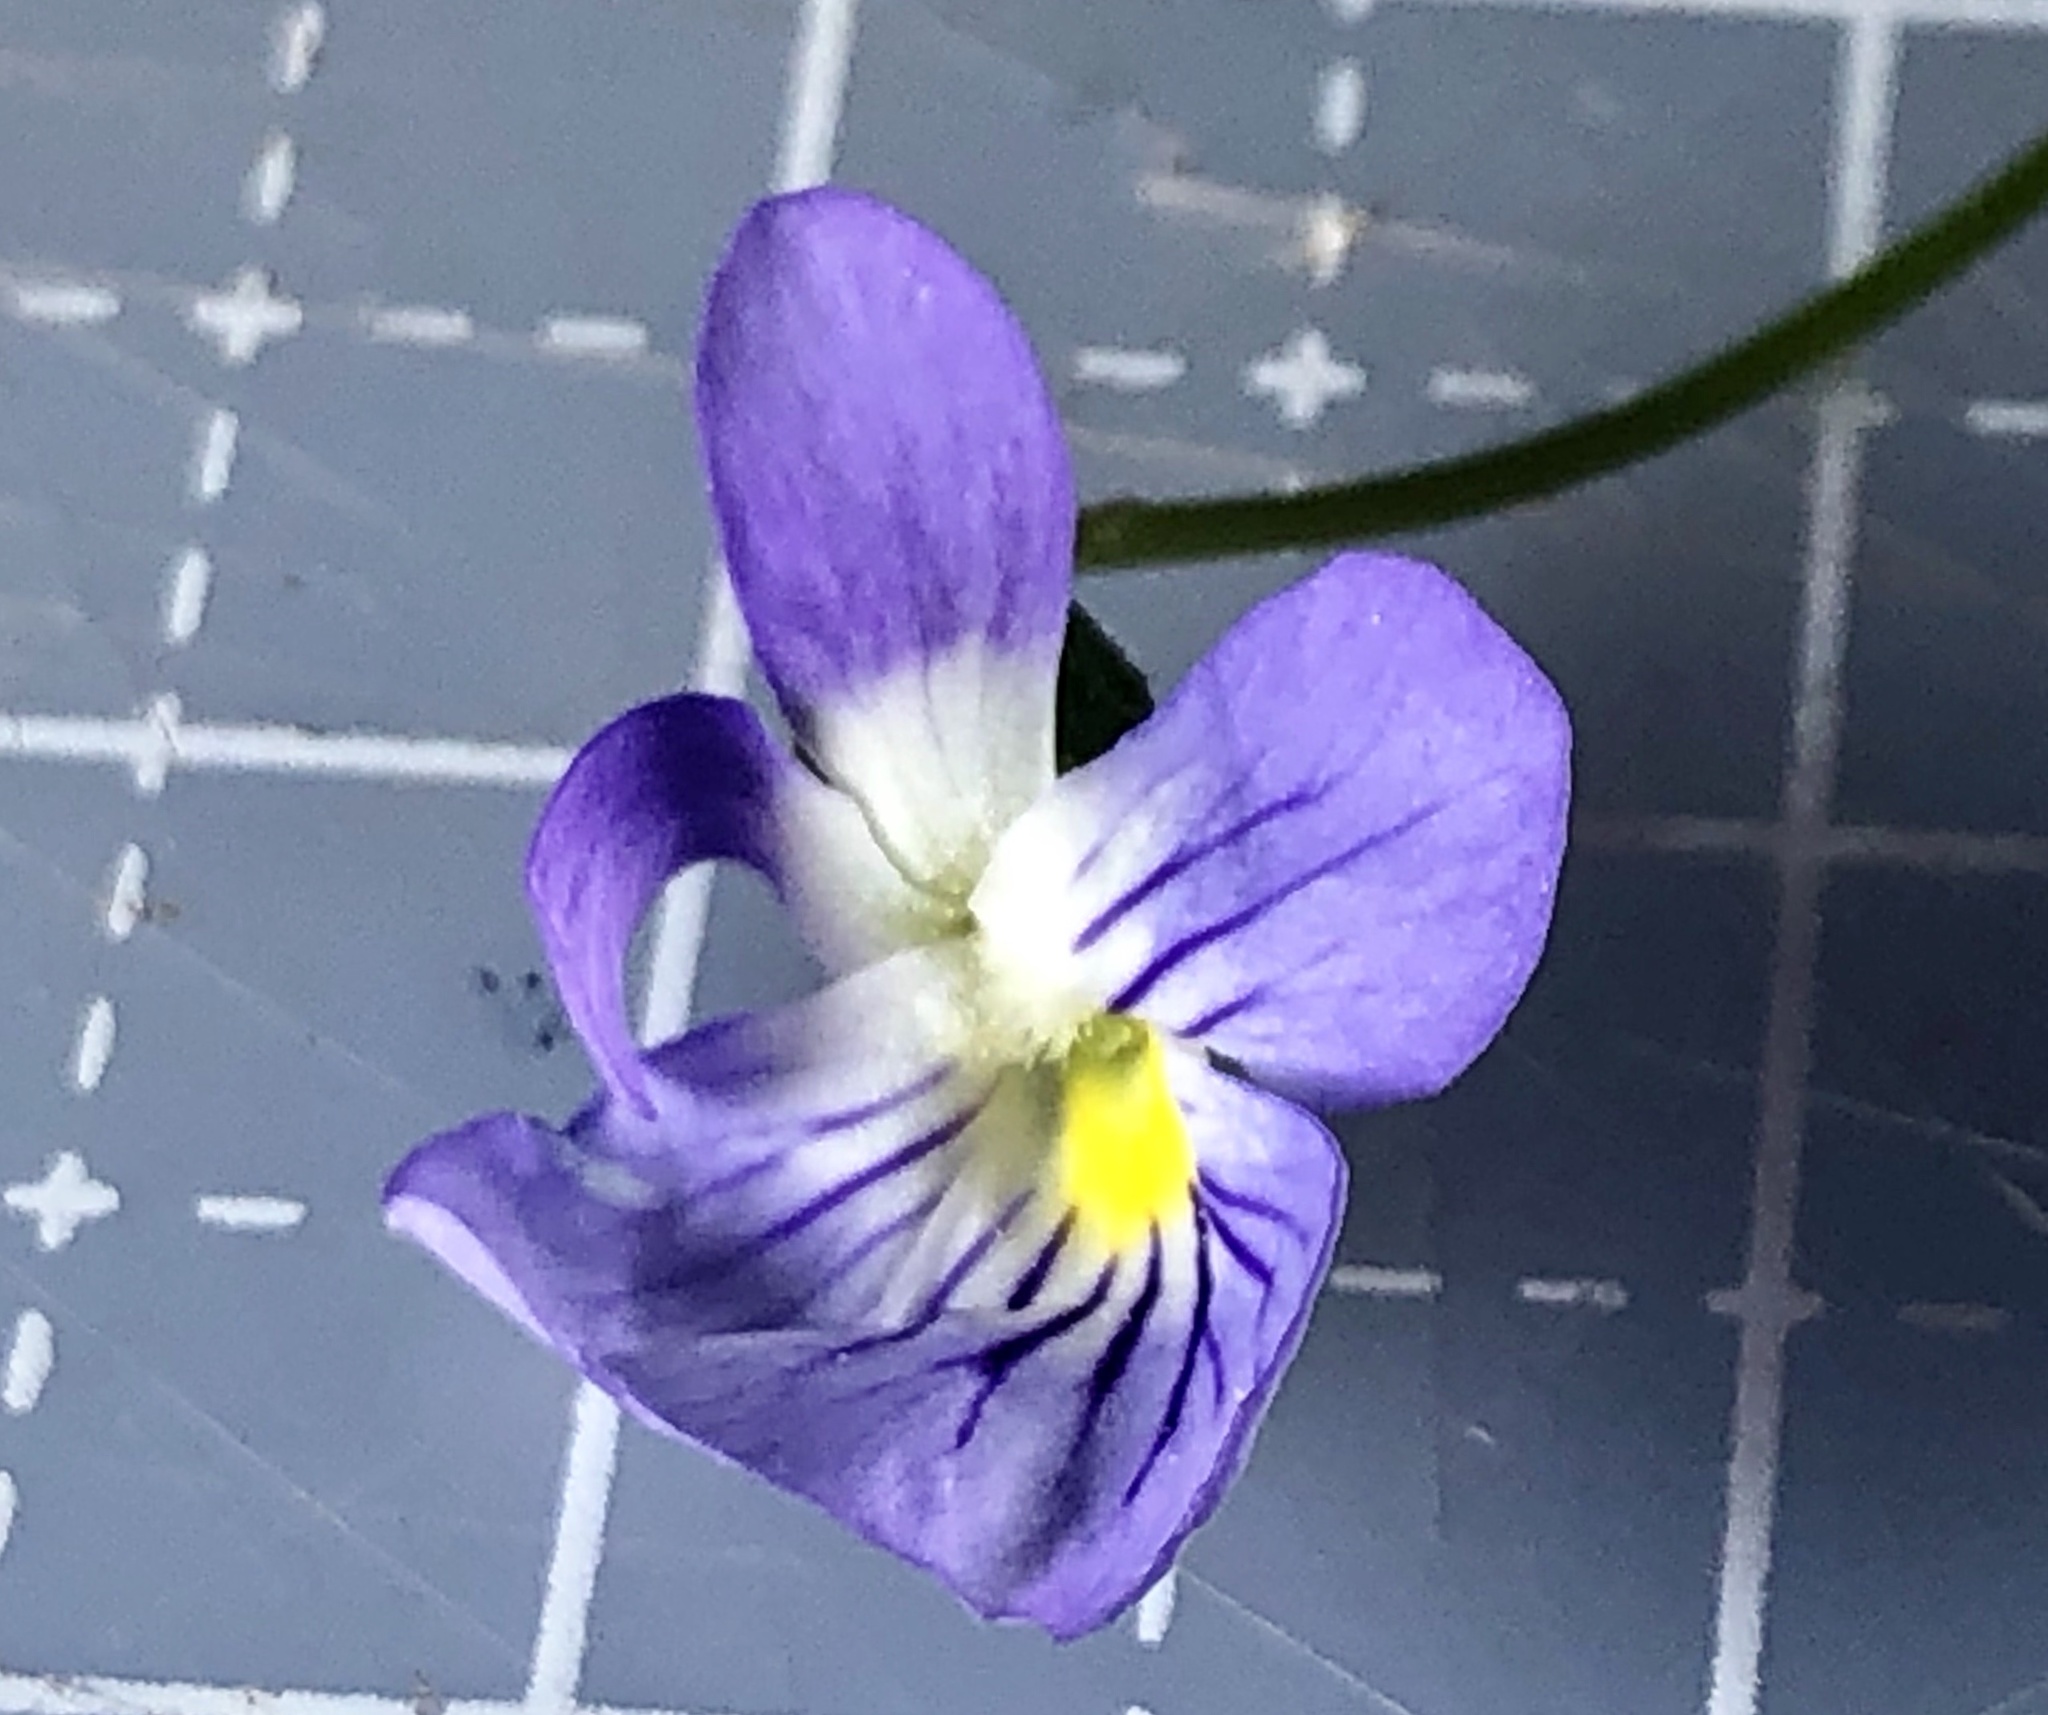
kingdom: Plantae
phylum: Tracheophyta
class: Magnoliopsida
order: Malpighiales
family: Violaceae
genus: Viola
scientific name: Viola rafinesquei
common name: American field pansy
